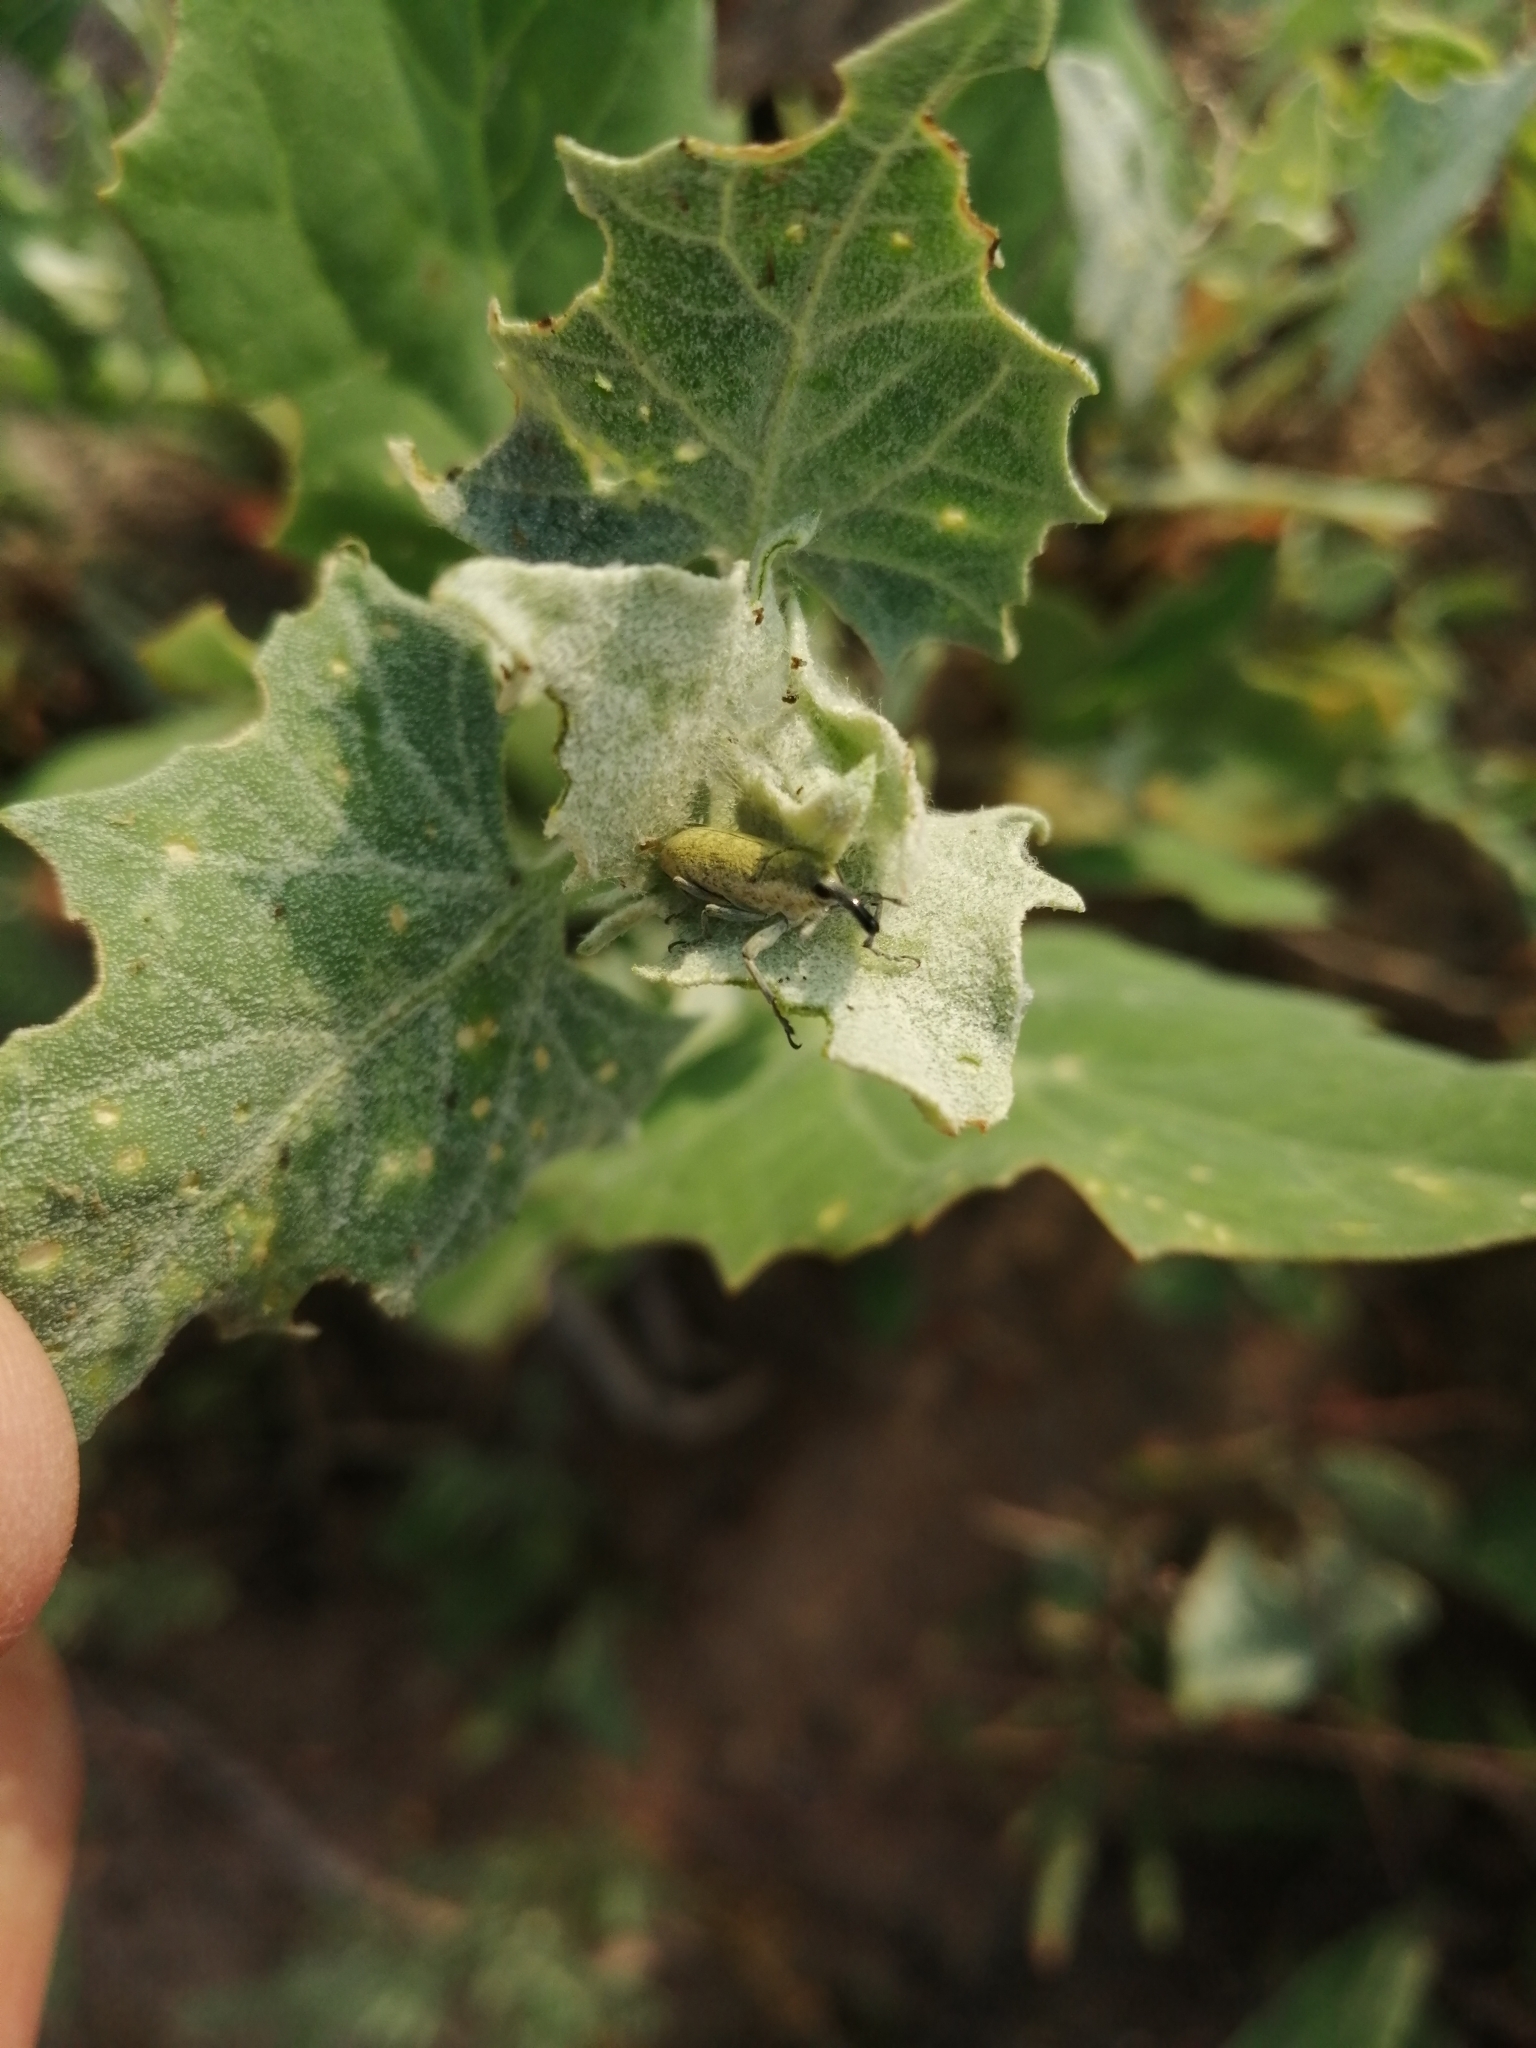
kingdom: Animalia
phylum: Arthropoda
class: Insecta
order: Coleoptera
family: Curculionidae
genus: Lixus
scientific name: Lixus rubicundus
